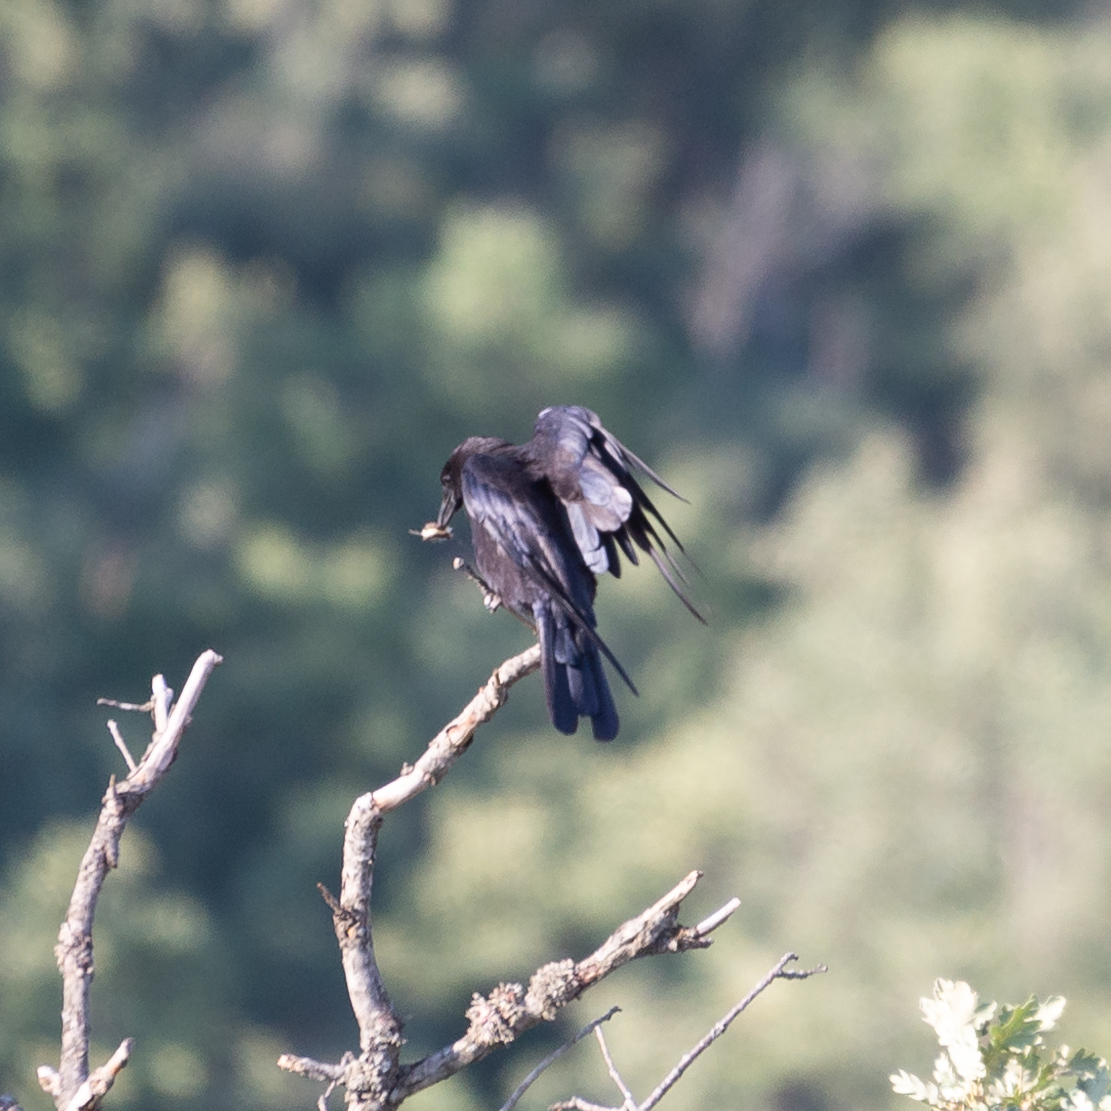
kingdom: Animalia
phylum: Chordata
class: Aves
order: Passeriformes
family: Corvidae
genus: Corvus
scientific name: Corvus corone
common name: Carrion crow
